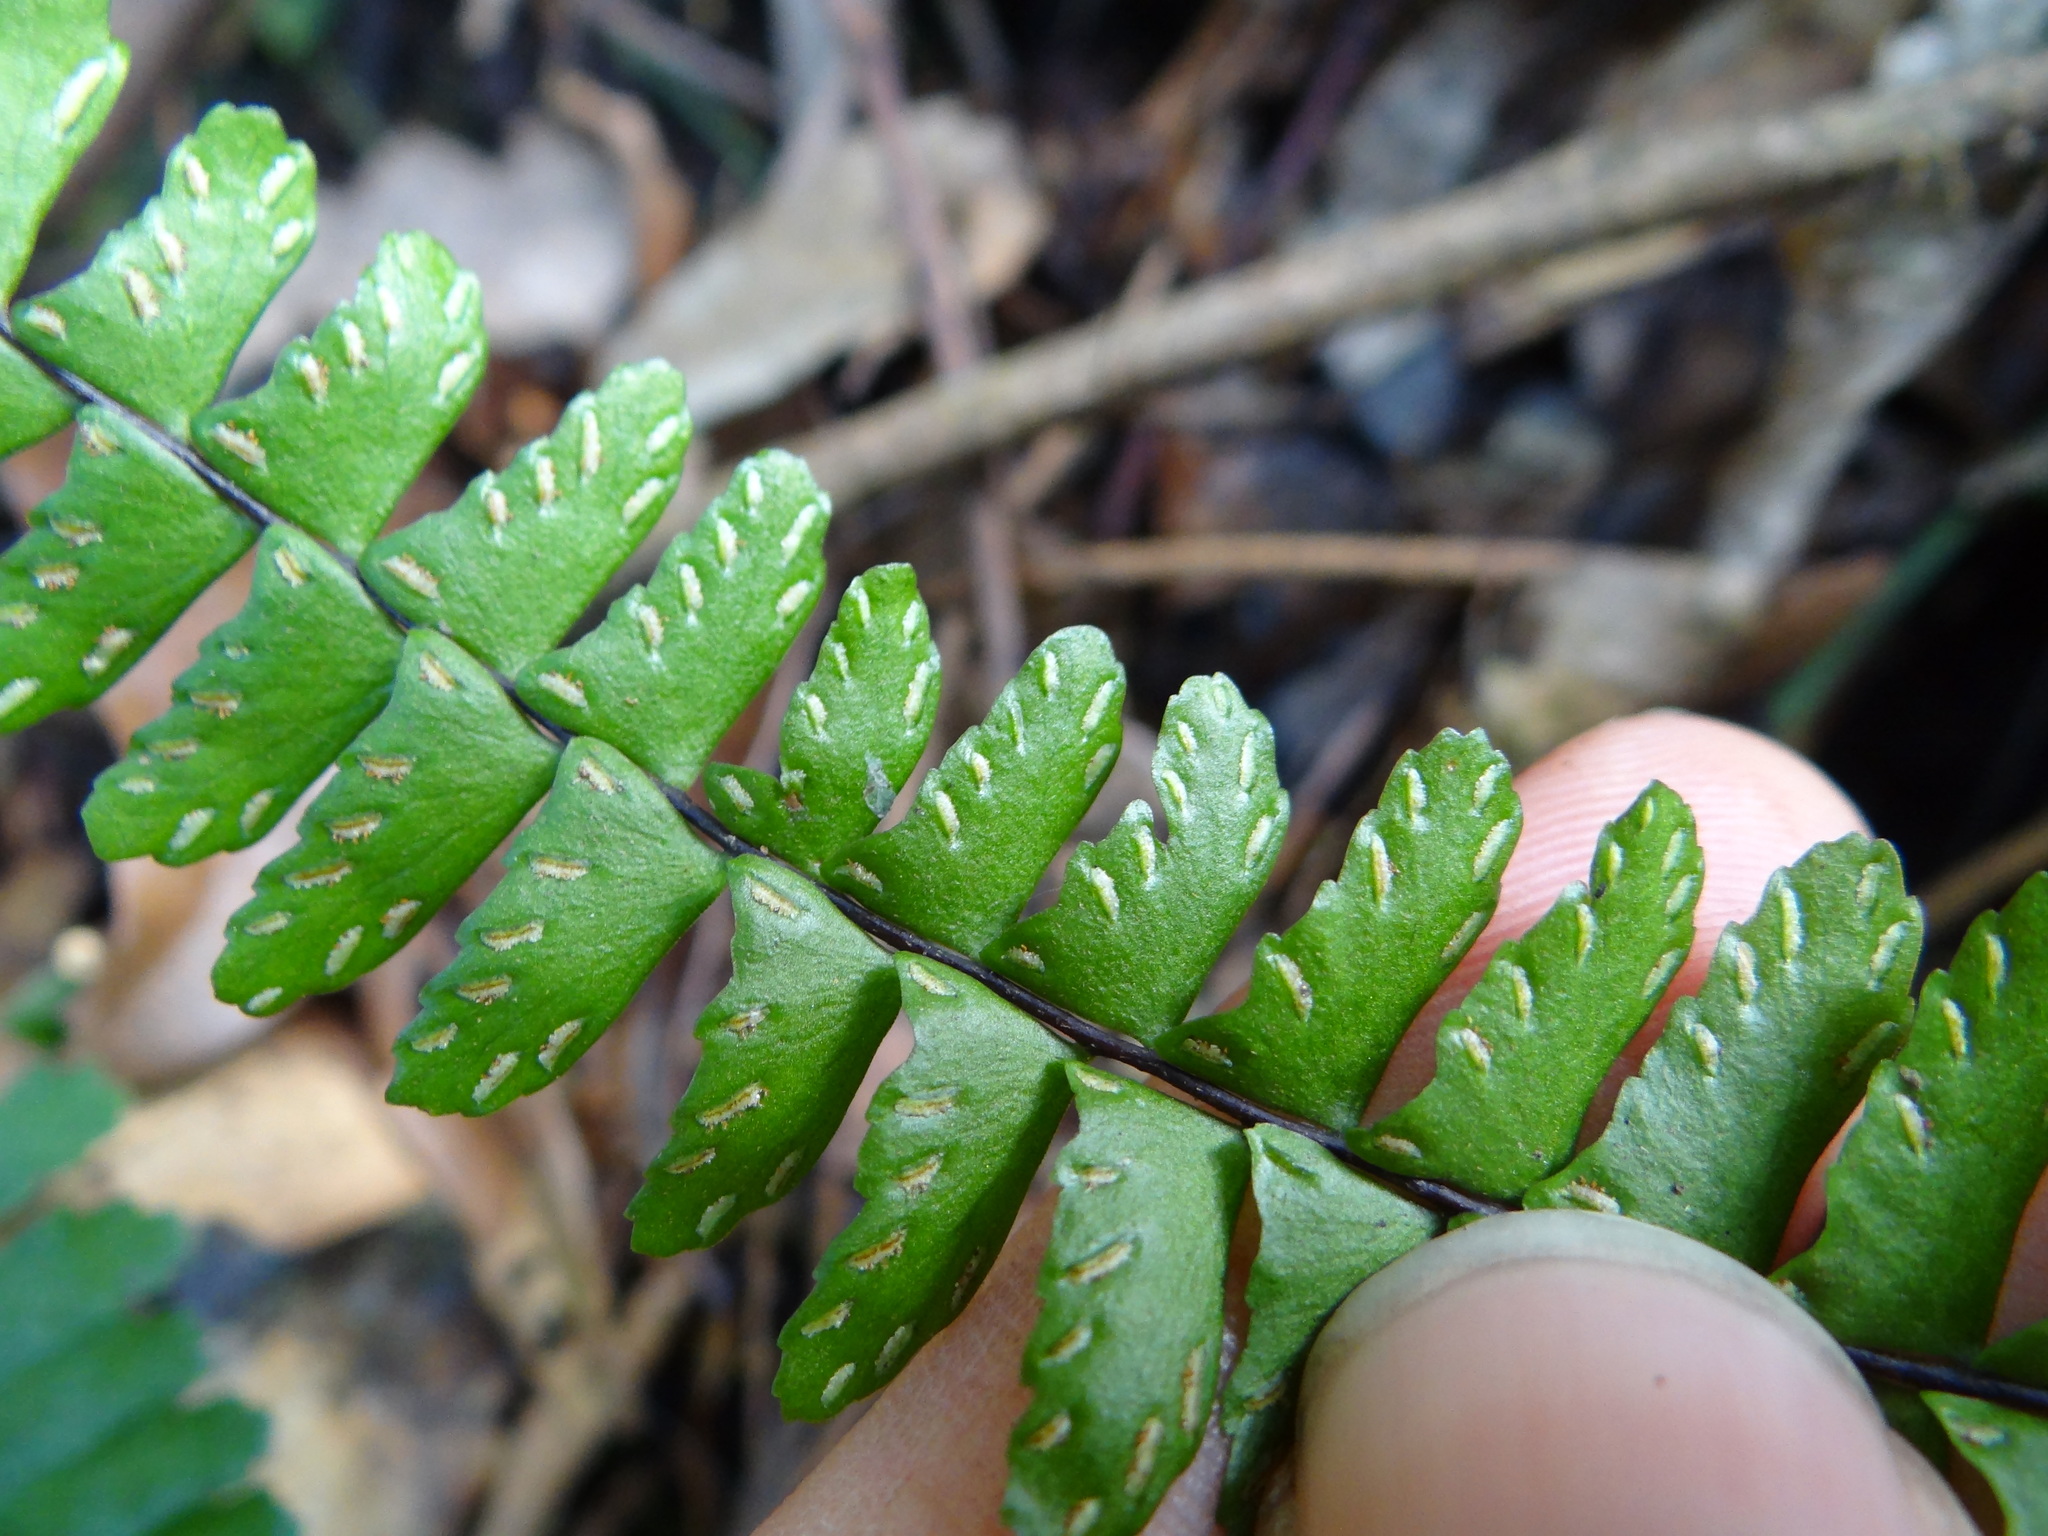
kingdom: Plantae
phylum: Tracheophyta
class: Polypodiopsida
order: Polypodiales
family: Aspleniaceae
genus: Asplenium
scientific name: Asplenium normale
